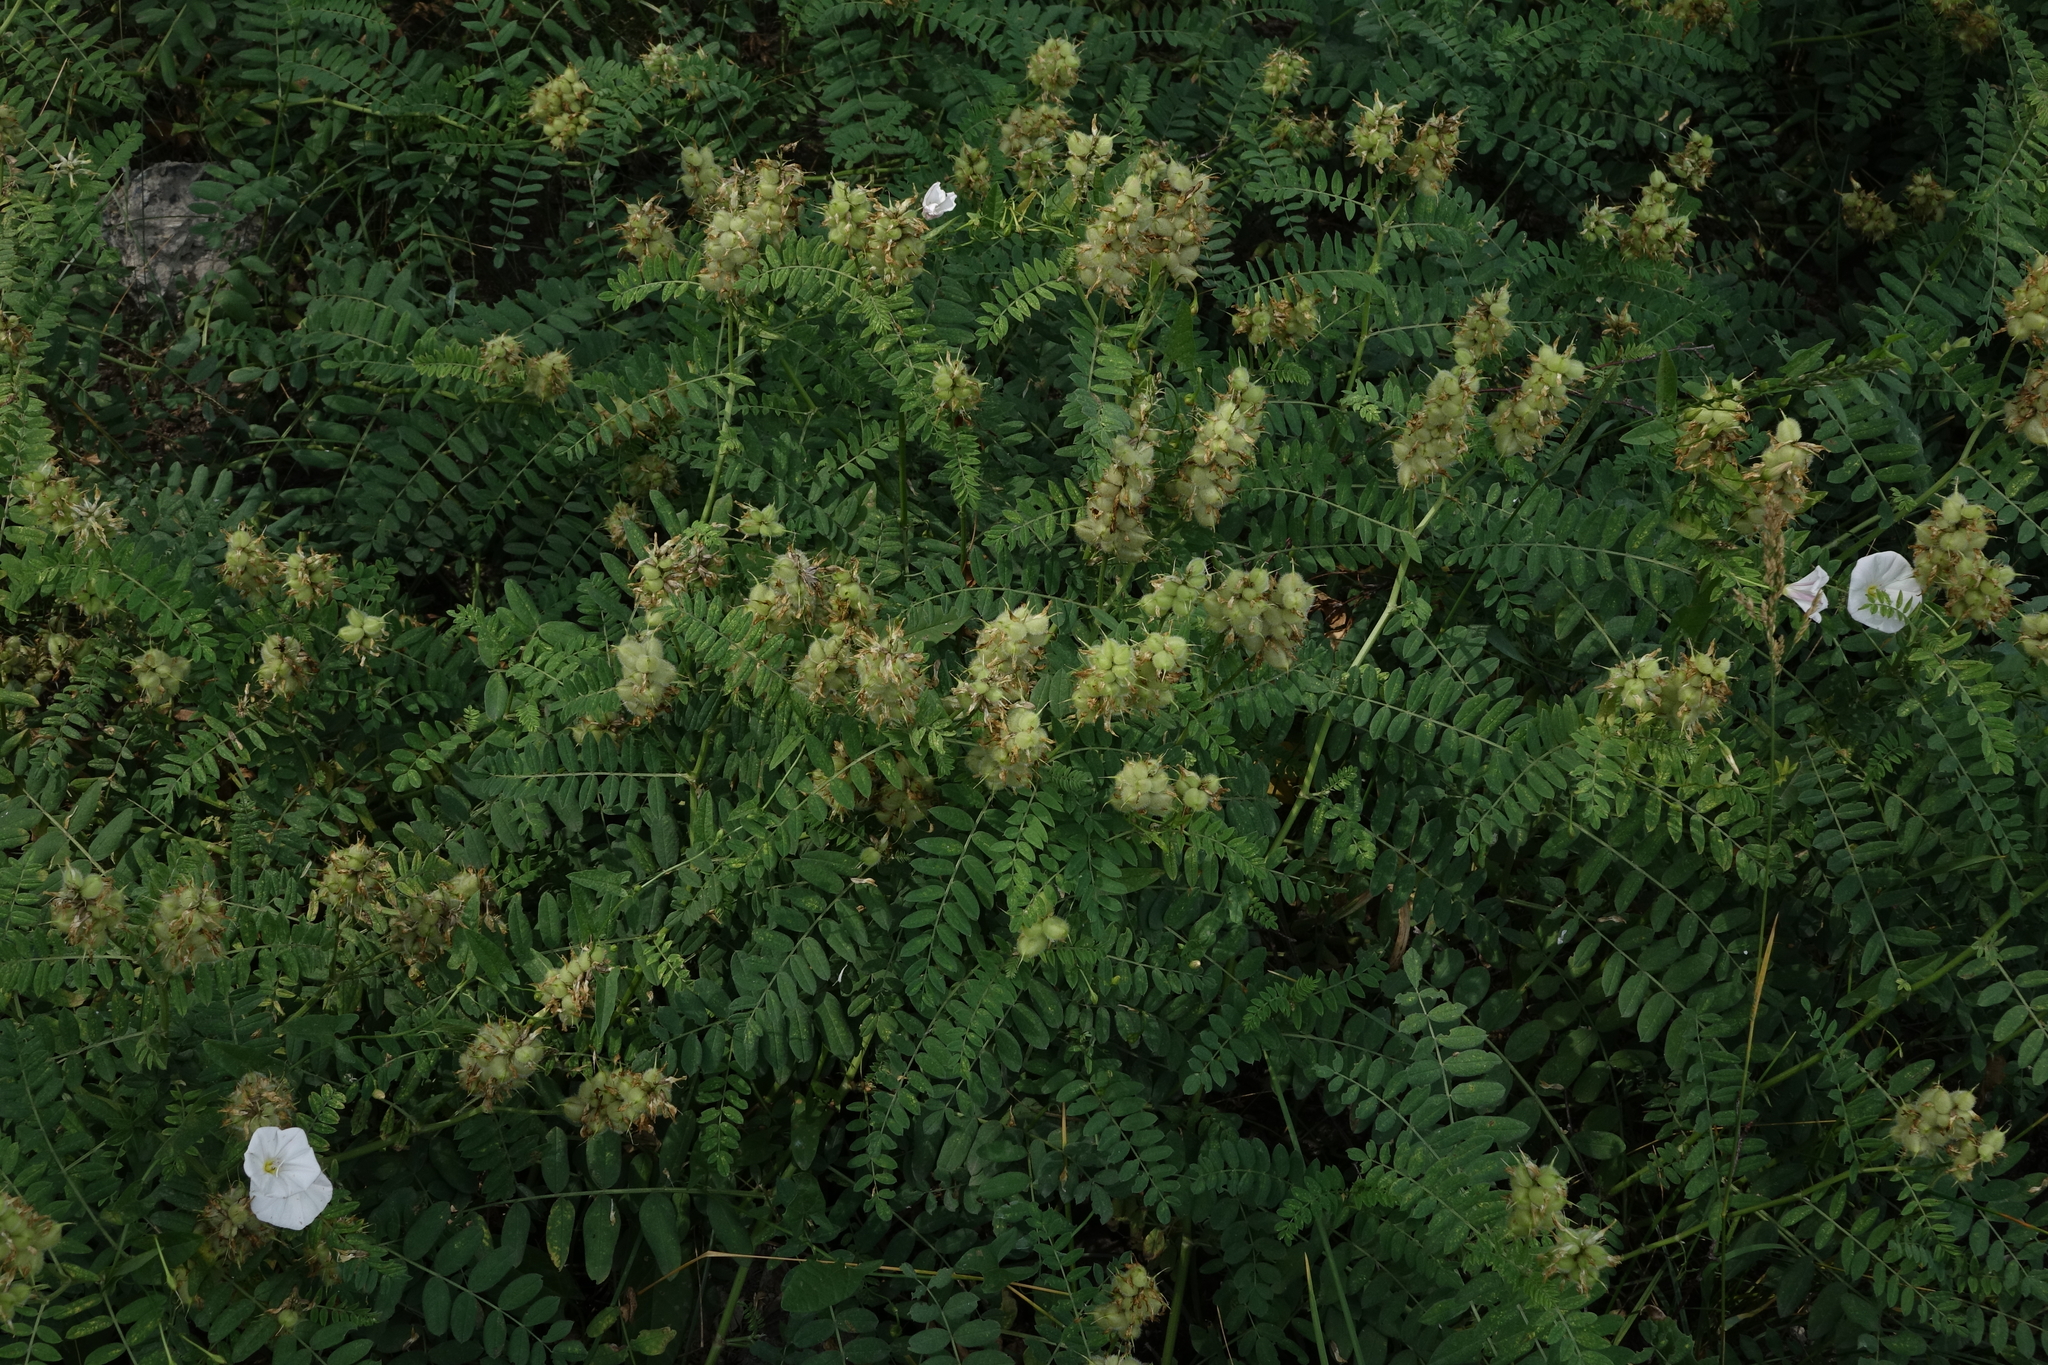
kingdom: Plantae
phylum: Tracheophyta
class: Magnoliopsida
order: Fabales
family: Fabaceae
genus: Astragalus
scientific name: Astragalus cicer
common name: Chick-pea milk-vetch
